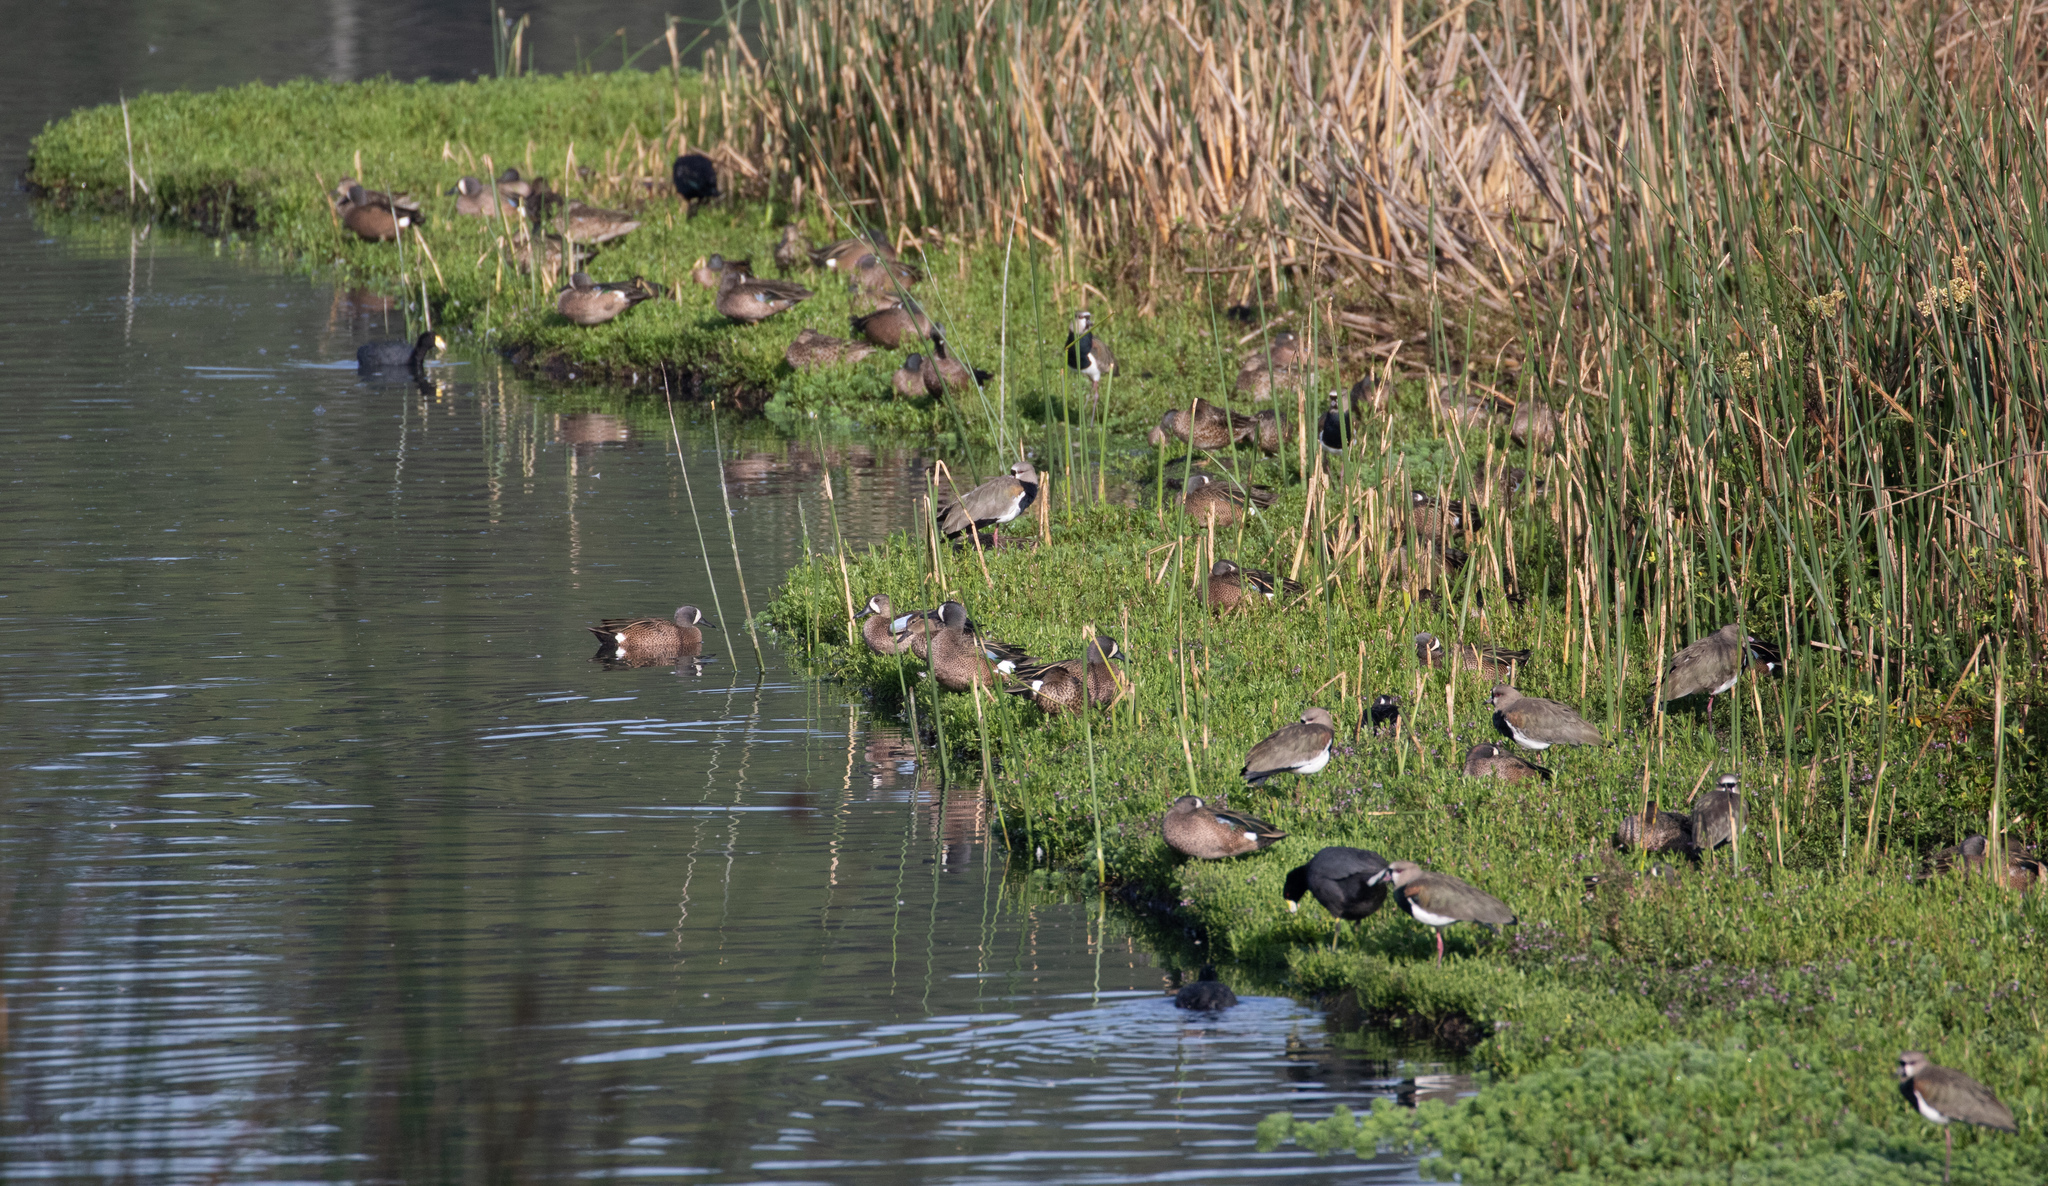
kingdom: Animalia
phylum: Chordata
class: Aves
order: Anseriformes
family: Anatidae
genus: Spatula
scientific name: Spatula discors
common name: Blue-winged teal
